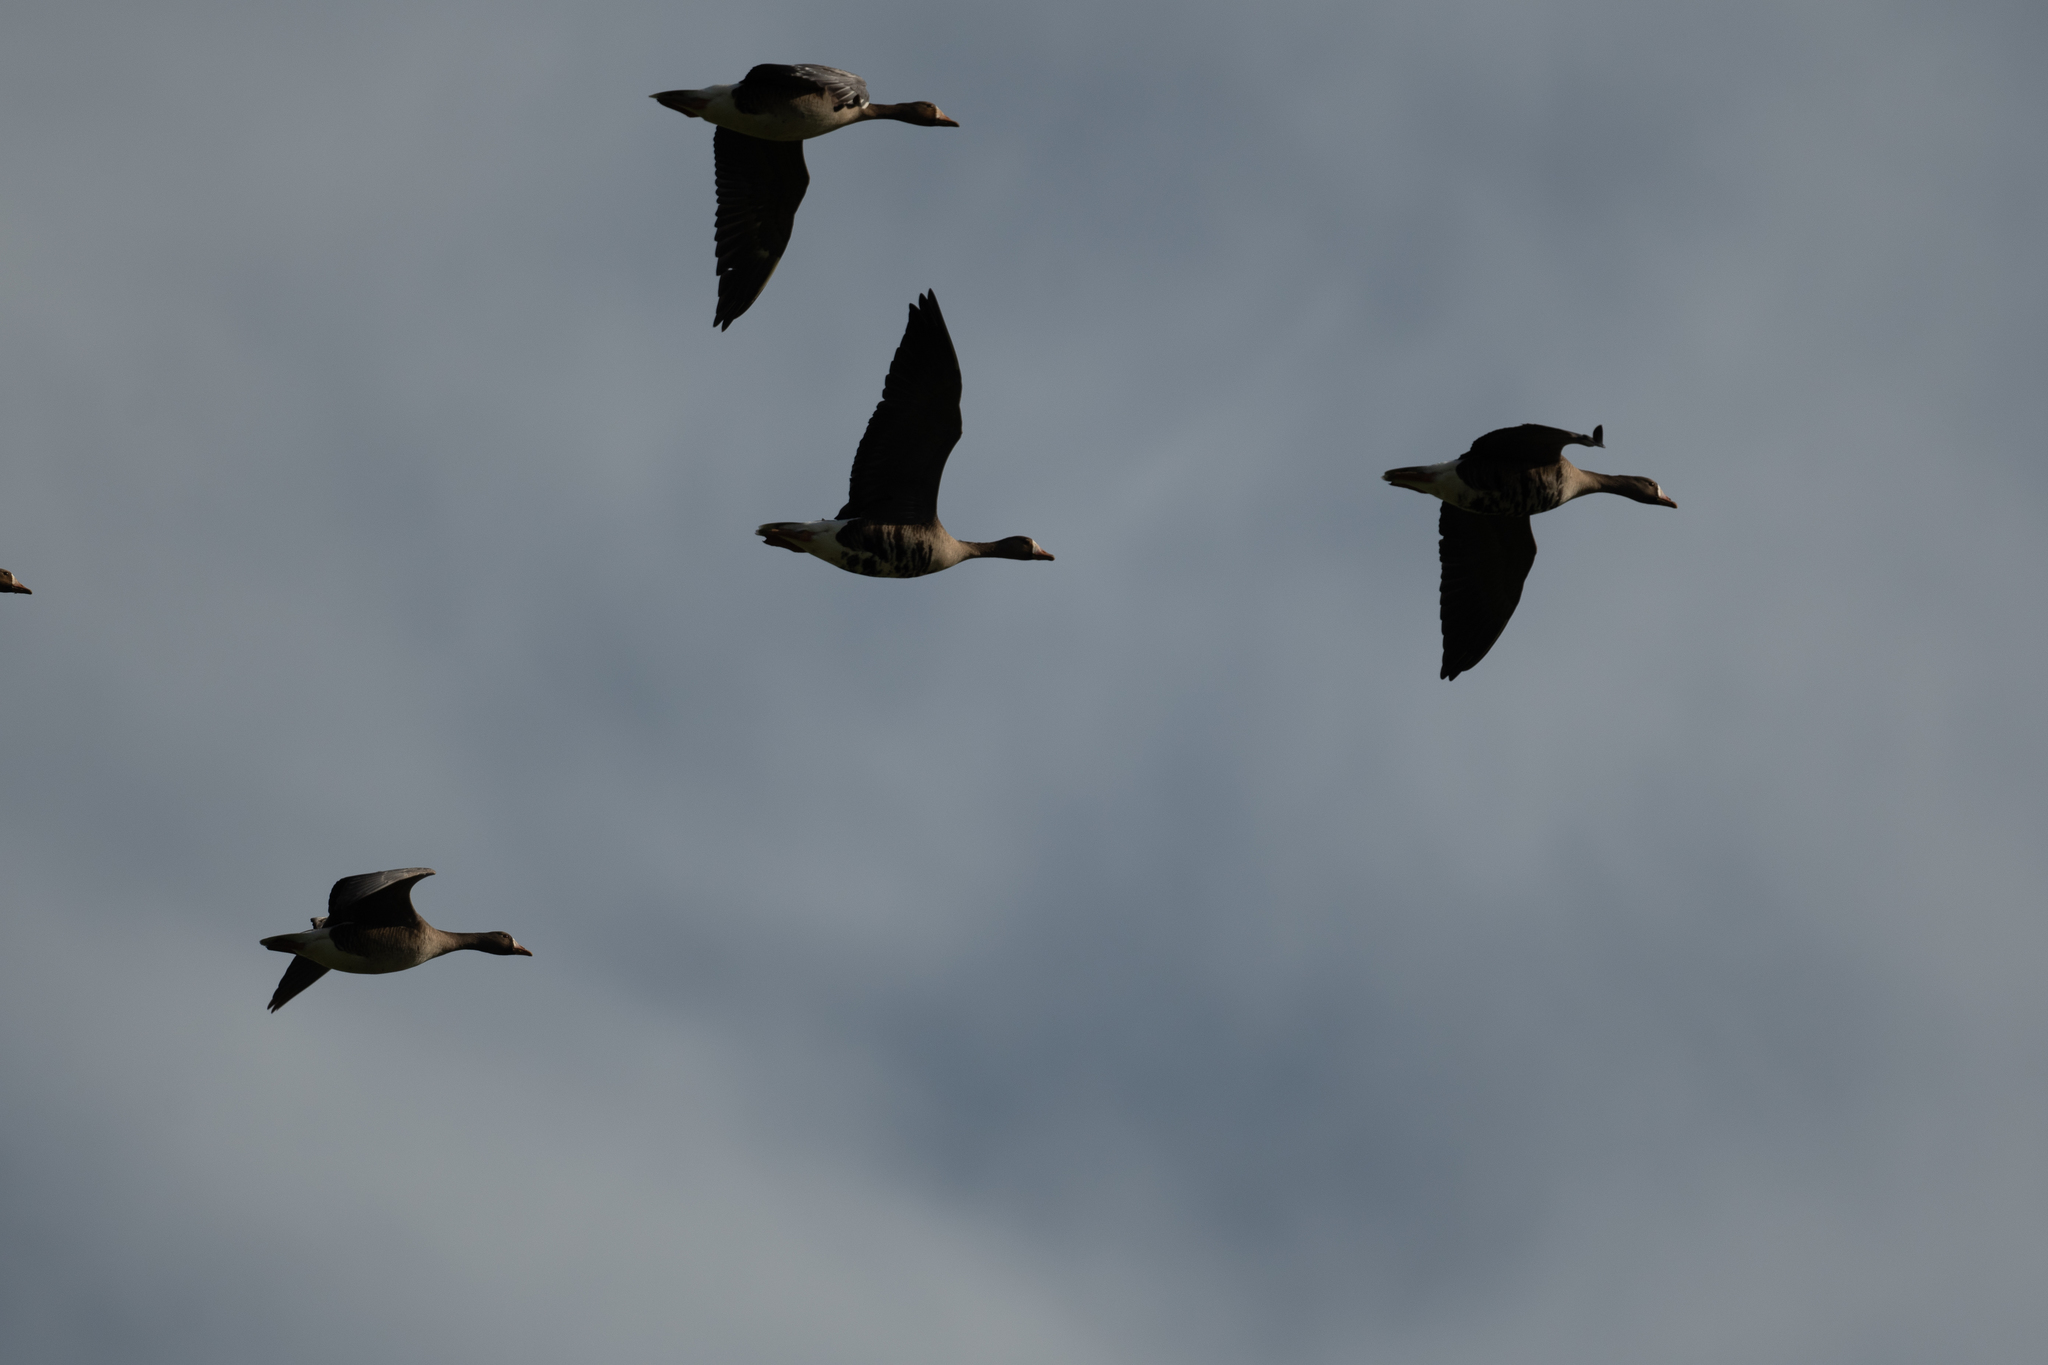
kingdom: Animalia
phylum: Chordata
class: Aves
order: Anseriformes
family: Anatidae
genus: Anser
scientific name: Anser albifrons
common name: Greater white-fronted goose
